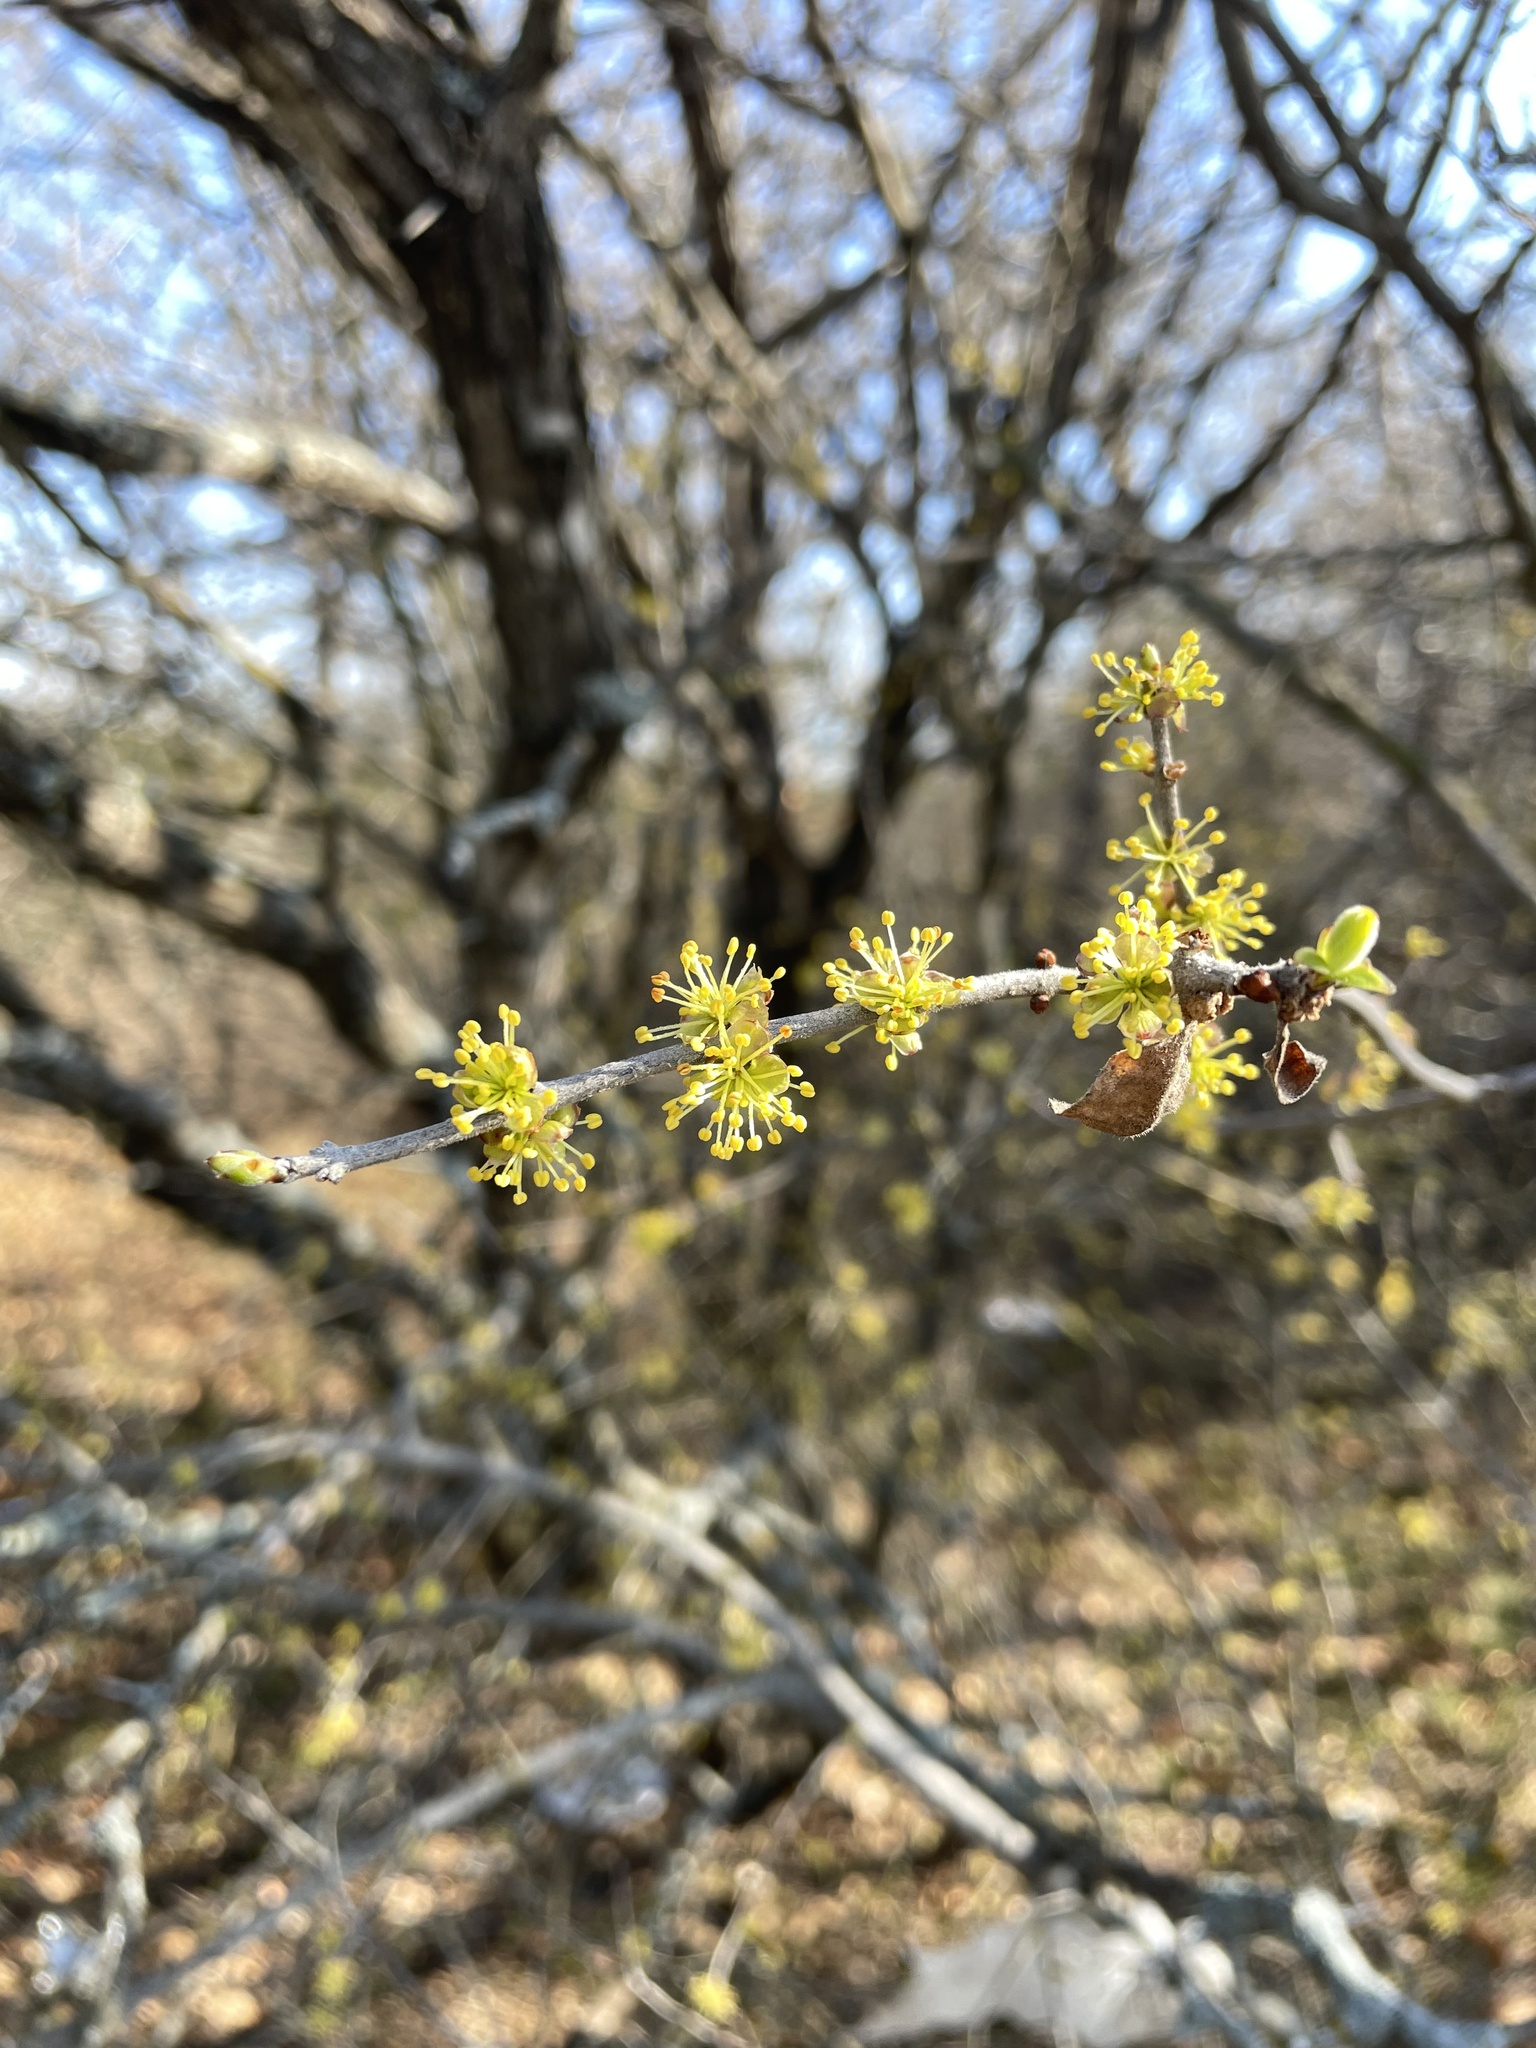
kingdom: Plantae
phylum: Tracheophyta
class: Magnoliopsida
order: Lamiales
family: Oleaceae
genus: Forestiera
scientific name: Forestiera pubescens
